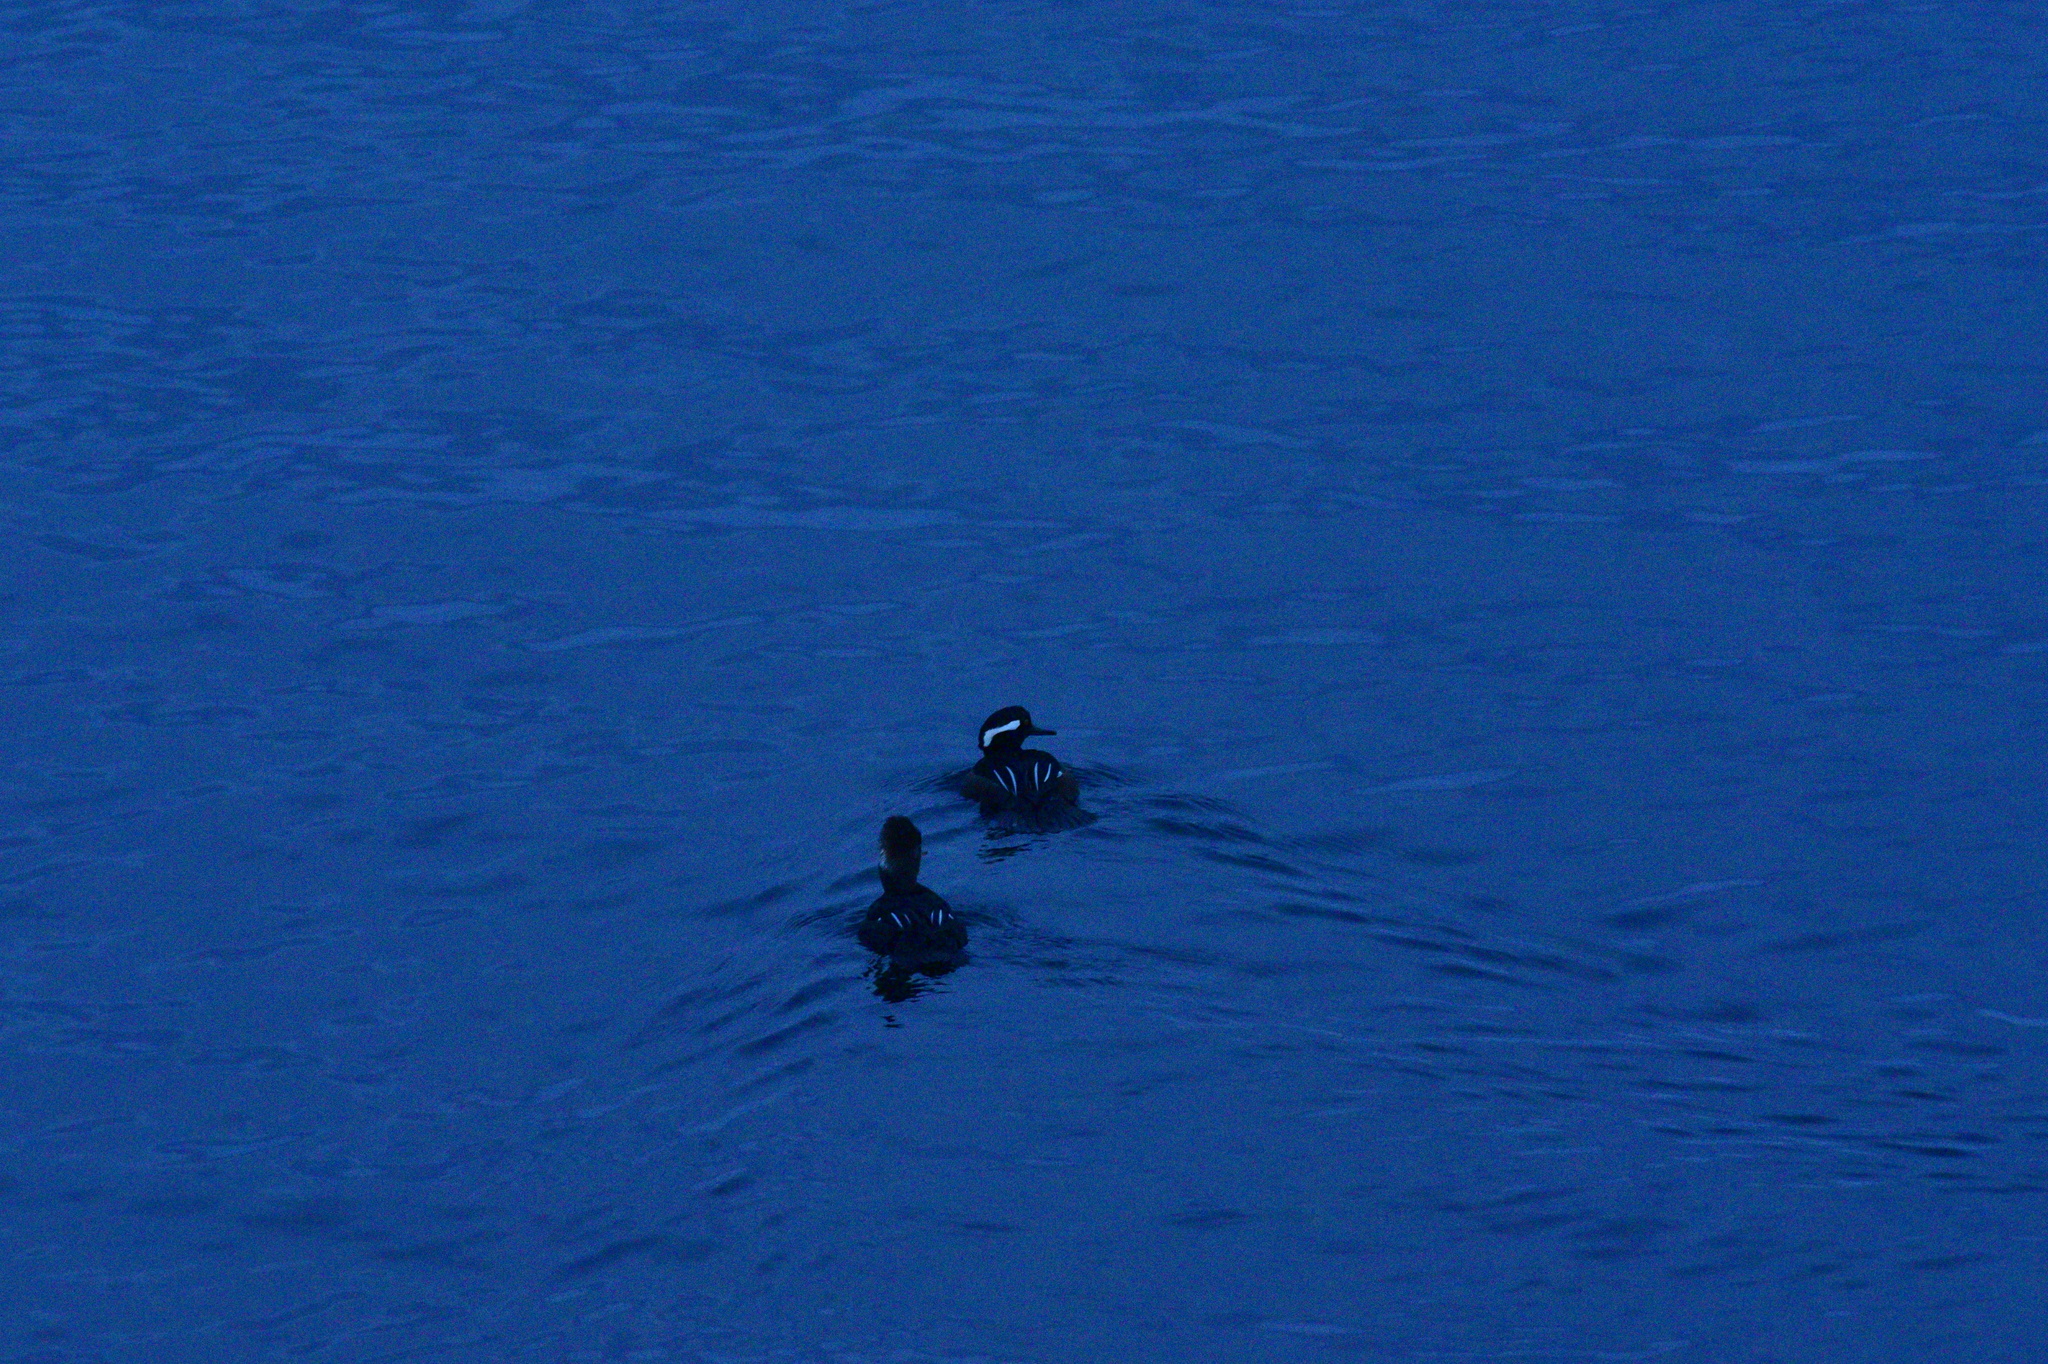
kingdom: Animalia
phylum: Chordata
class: Aves
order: Anseriformes
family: Anatidae
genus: Lophodytes
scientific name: Lophodytes cucullatus
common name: Hooded merganser
